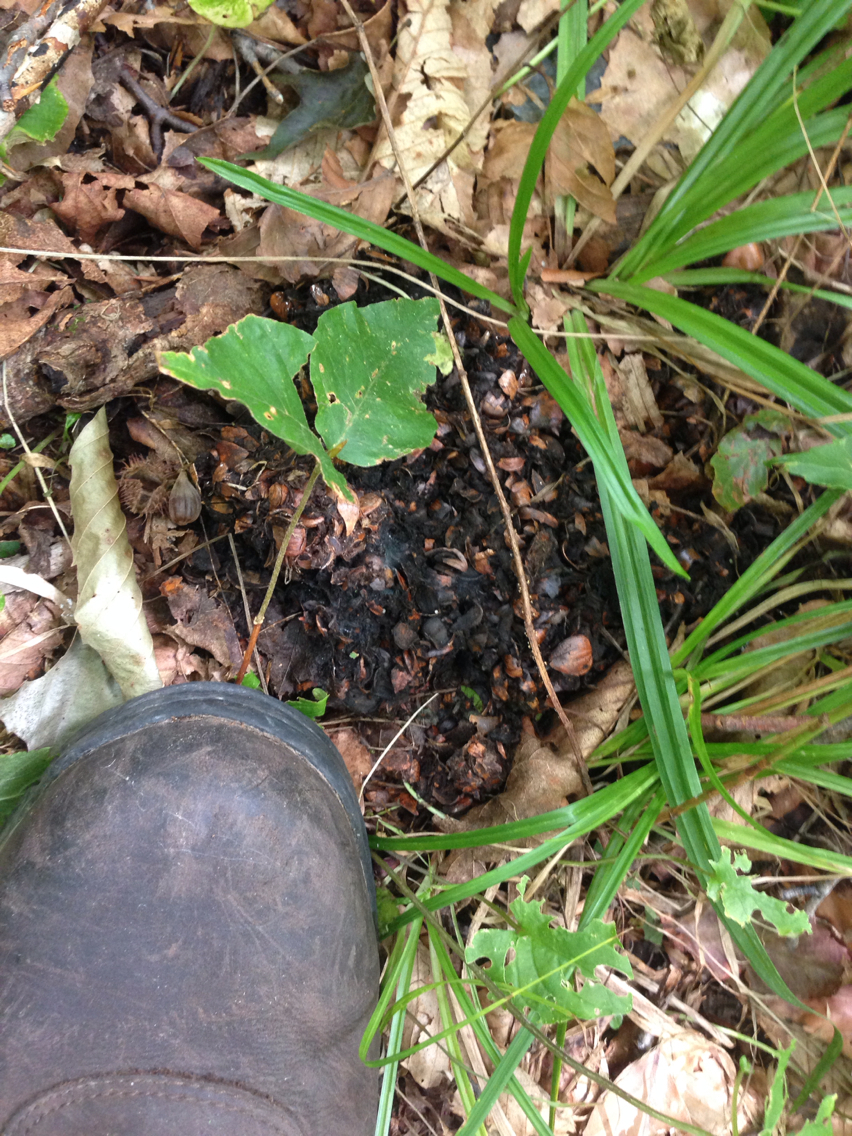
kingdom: Animalia
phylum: Chordata
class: Mammalia
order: Carnivora
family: Ursidae
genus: Ursus
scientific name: Ursus americanus
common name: American black bear
